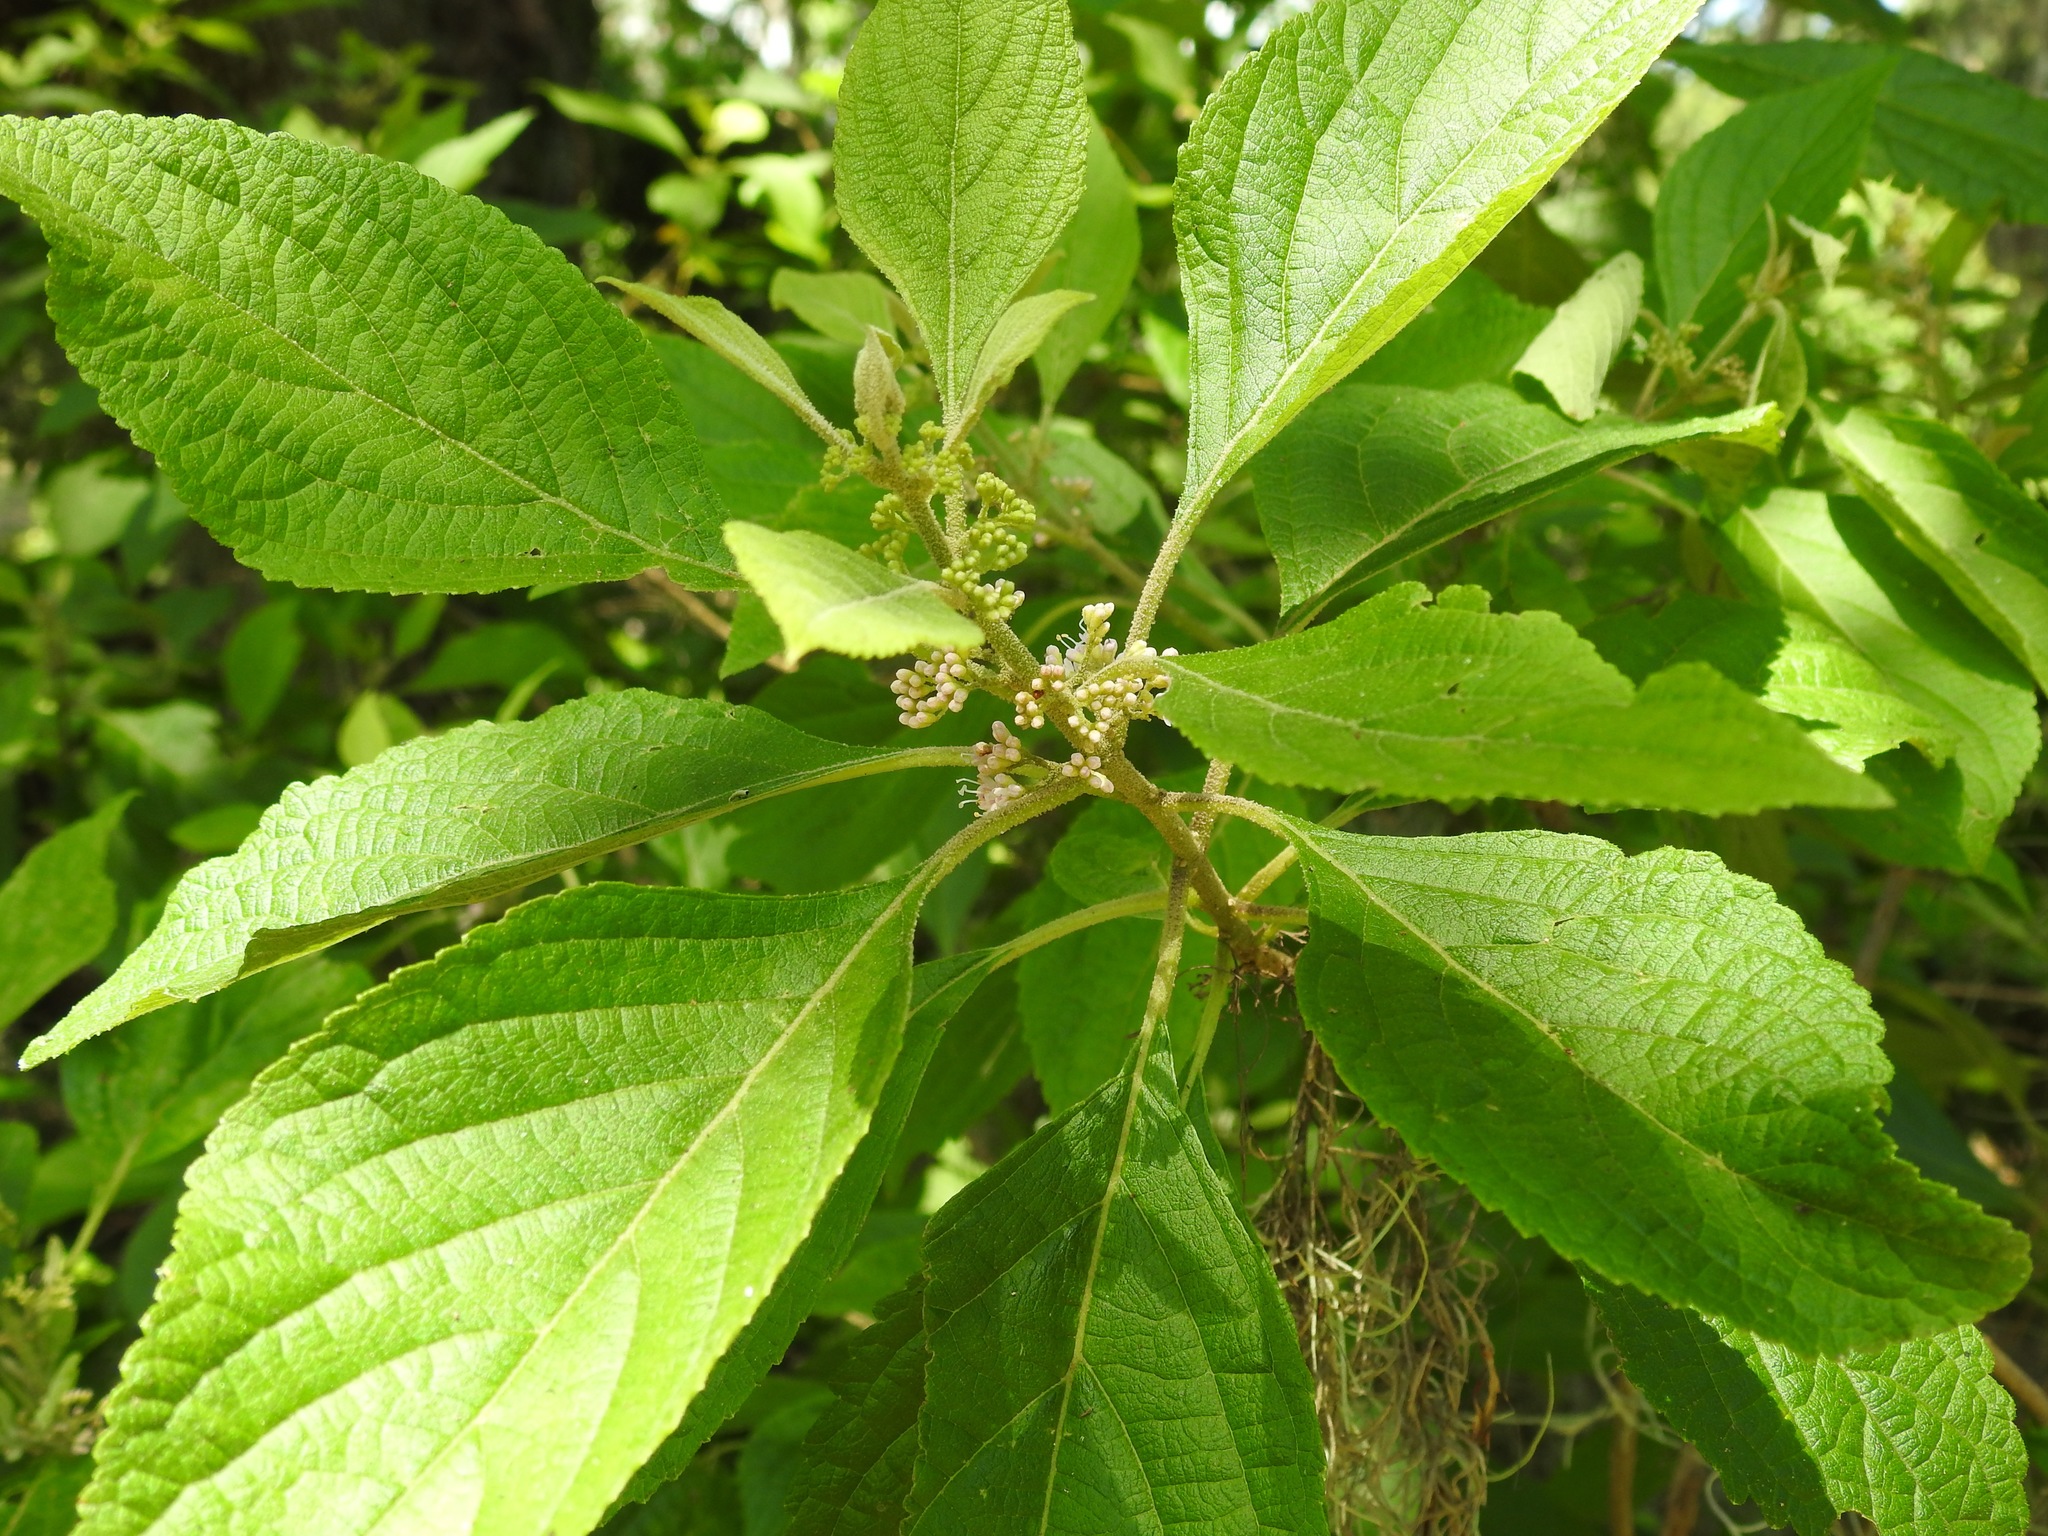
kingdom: Plantae
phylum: Tracheophyta
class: Magnoliopsida
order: Lamiales
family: Lamiaceae
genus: Callicarpa
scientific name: Callicarpa americana
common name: American beautyberry
